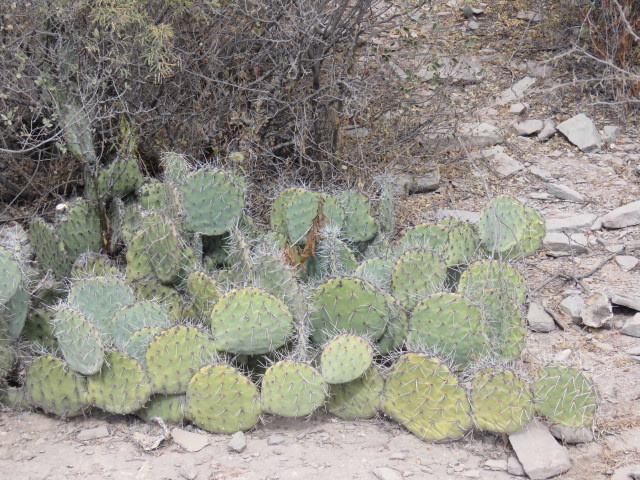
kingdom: Plantae
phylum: Tracheophyta
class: Magnoliopsida
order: Caryophyllales
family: Cactaceae
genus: Opuntia
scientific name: Opuntia stenopetala
